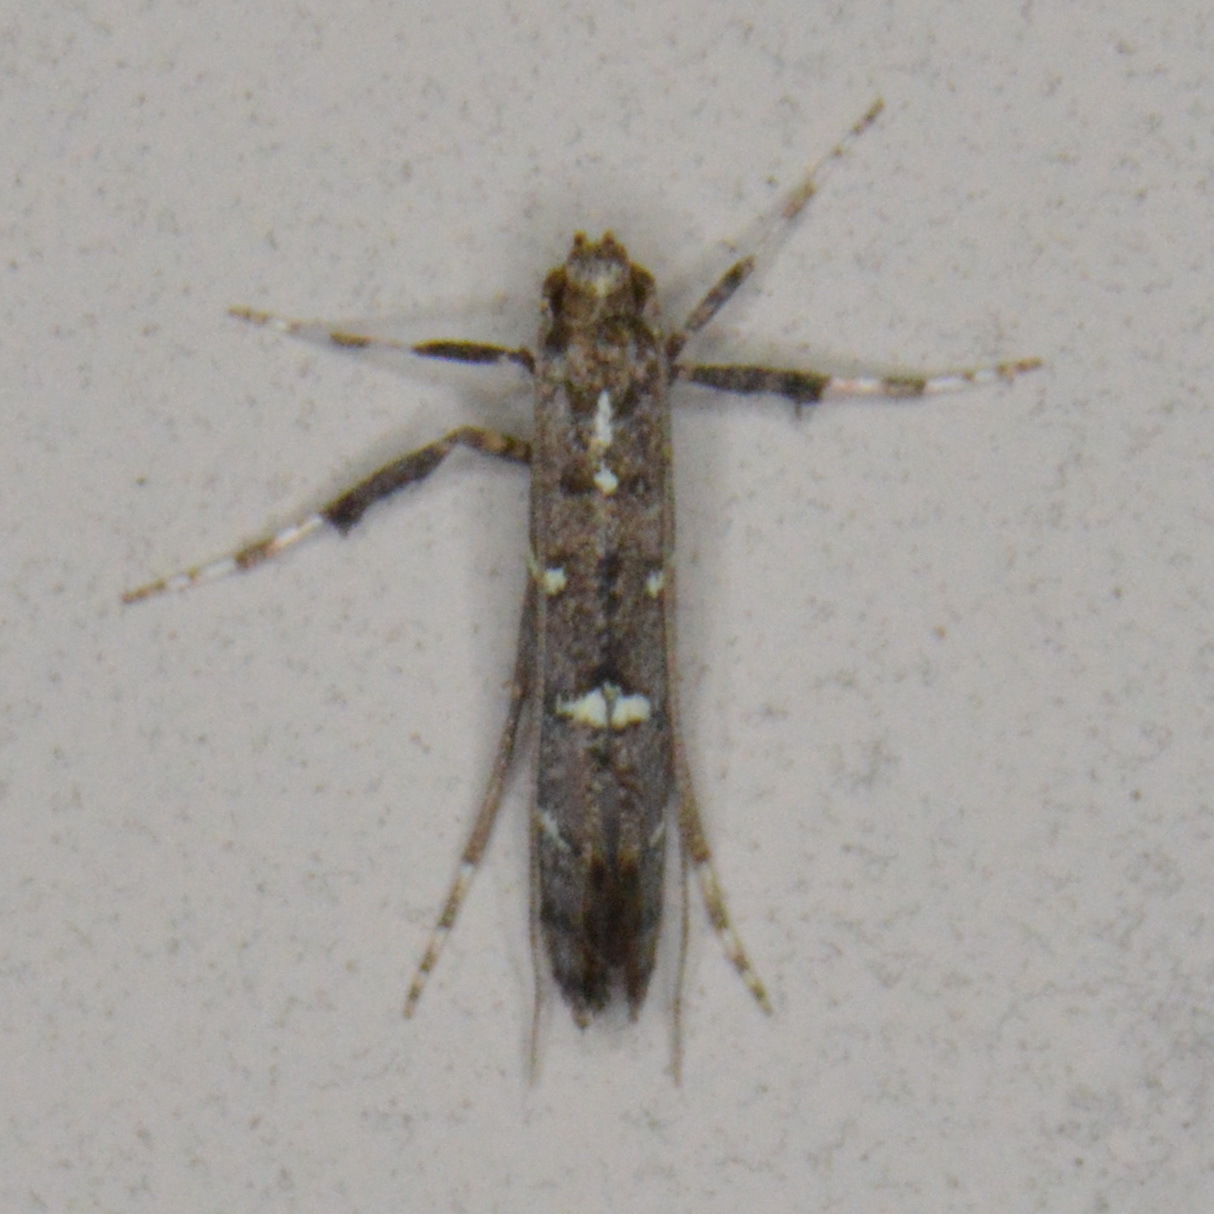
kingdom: Animalia
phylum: Arthropoda
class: Insecta
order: Lepidoptera
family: Gracillariidae
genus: Caloptilia
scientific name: Caloptilia triadicae
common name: Tallow leaf roller
